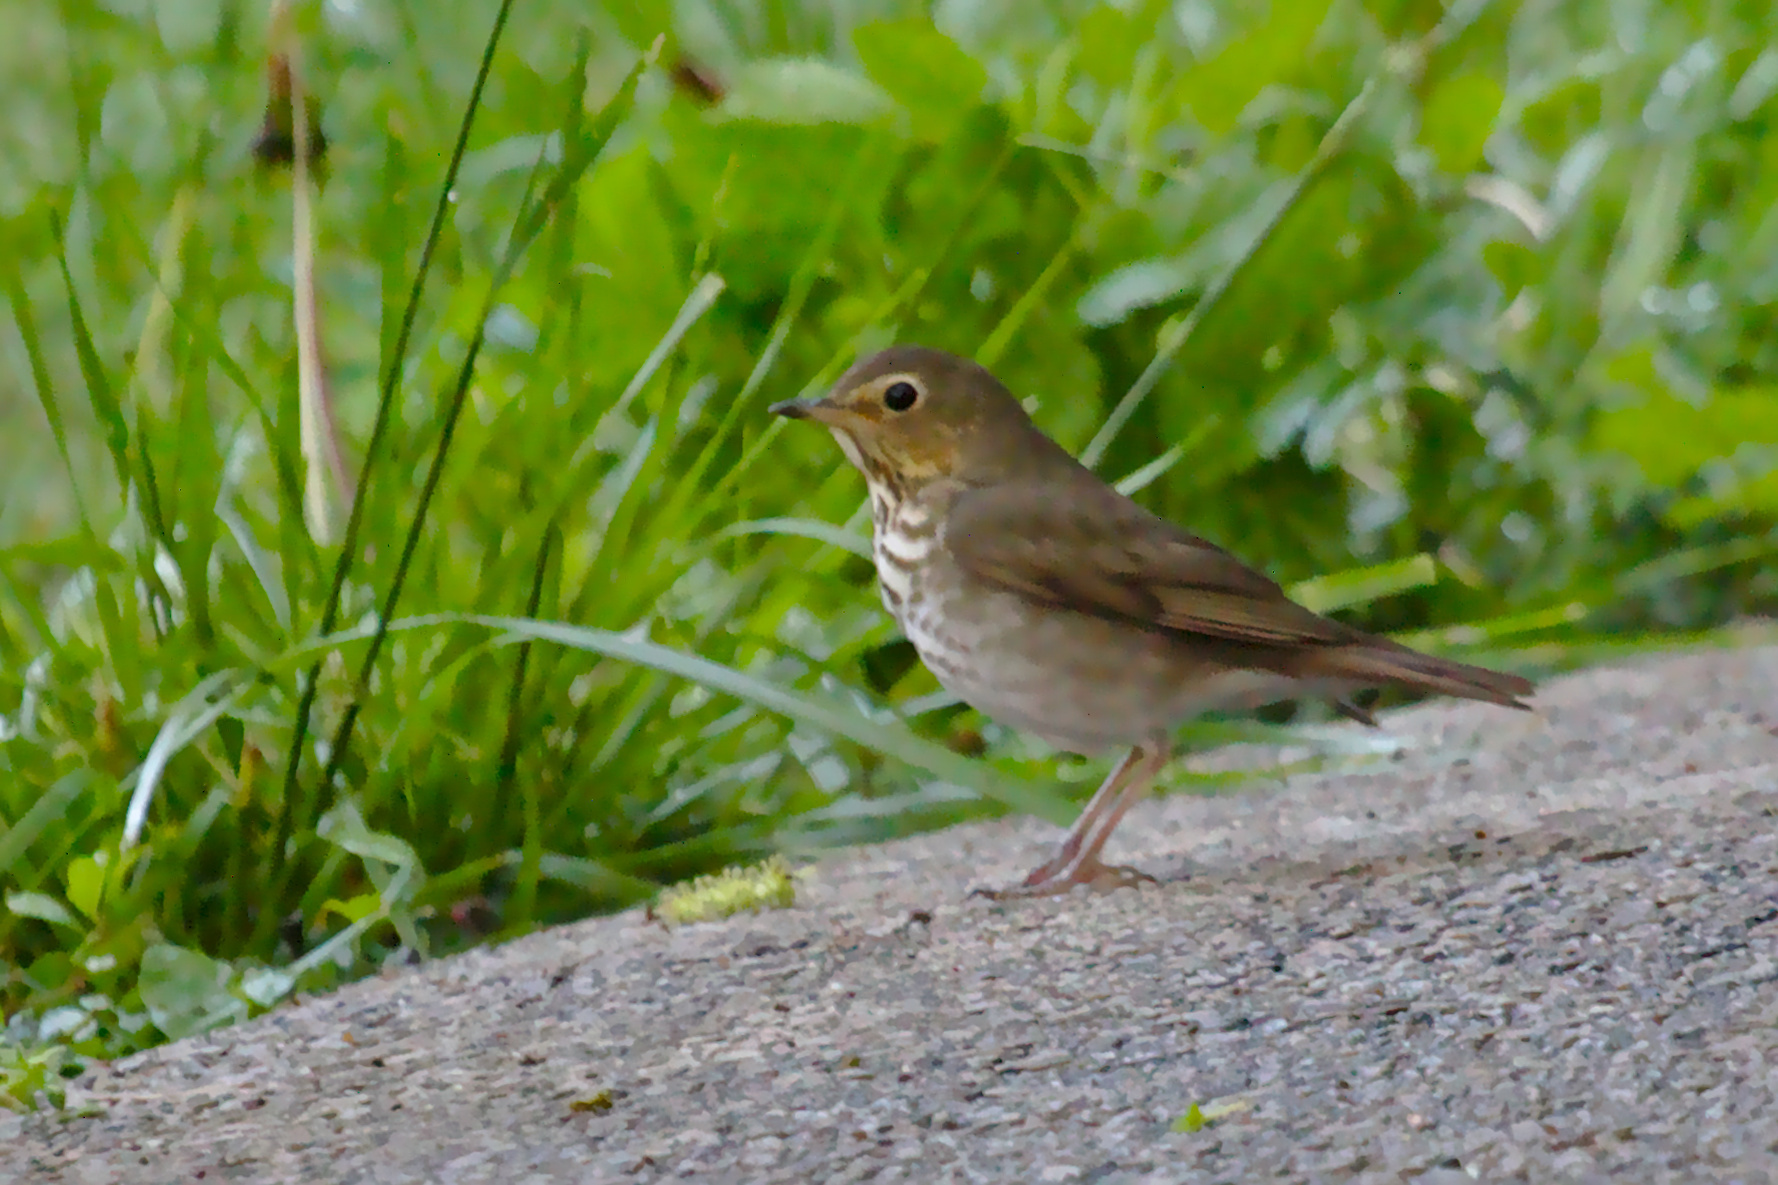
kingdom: Animalia
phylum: Chordata
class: Aves
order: Passeriformes
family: Turdidae
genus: Catharus
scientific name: Catharus ustulatus
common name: Swainson's thrush
